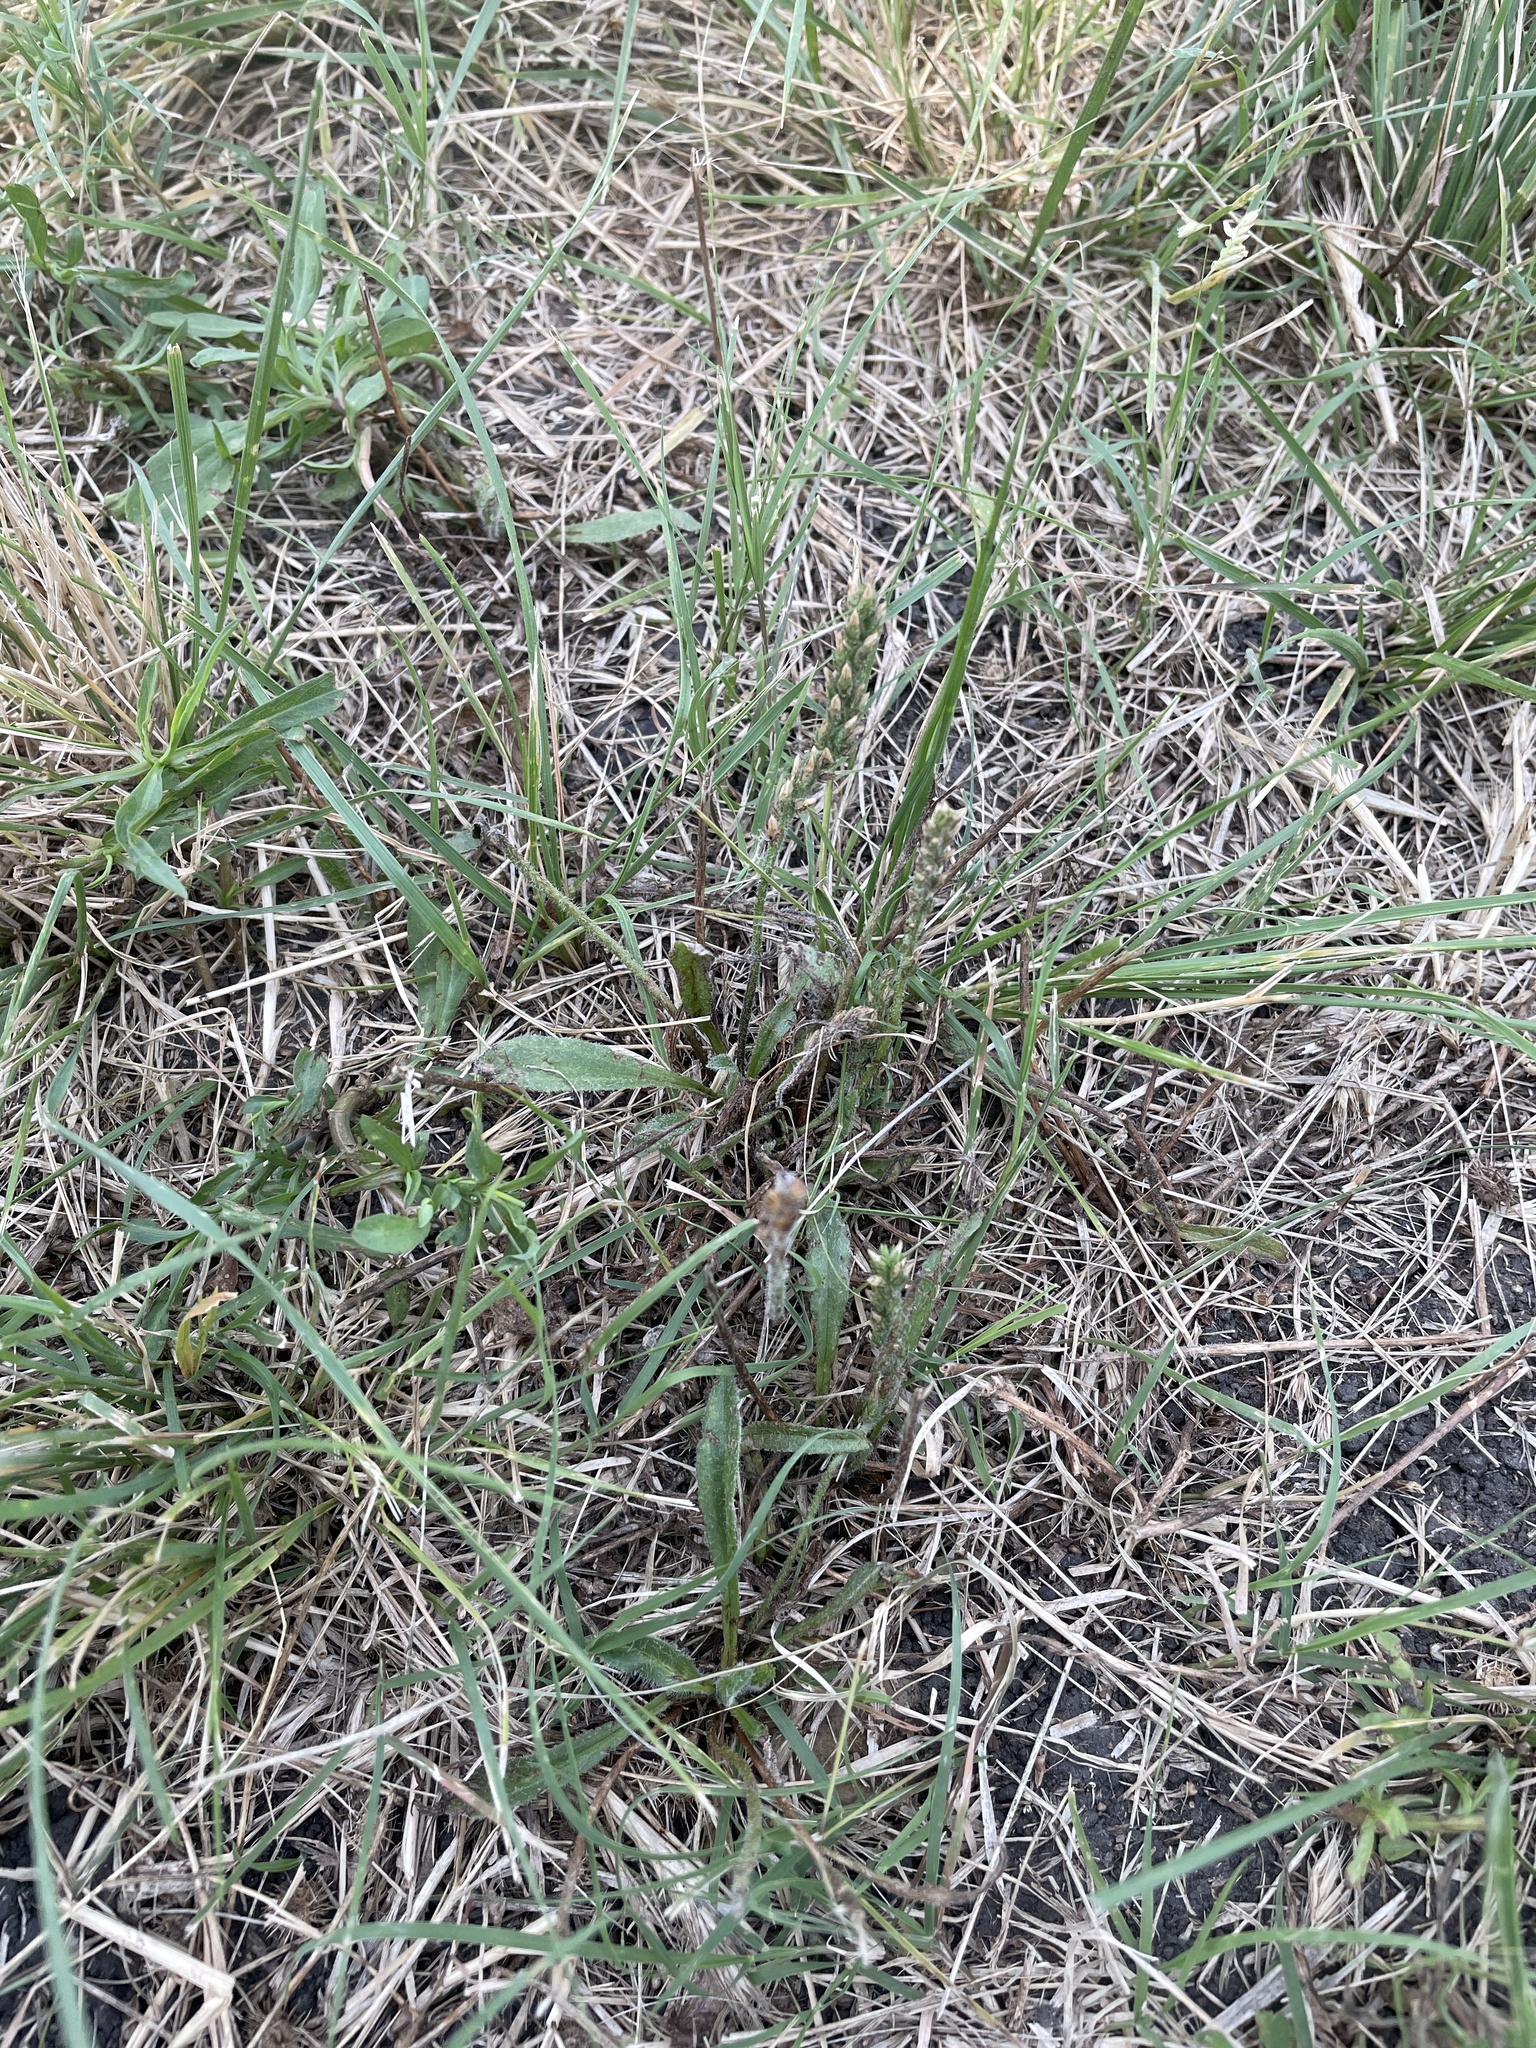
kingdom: Plantae
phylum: Tracheophyta
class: Magnoliopsida
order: Lamiales
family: Plantaginaceae
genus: Plantago
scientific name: Plantago rhodosperma
